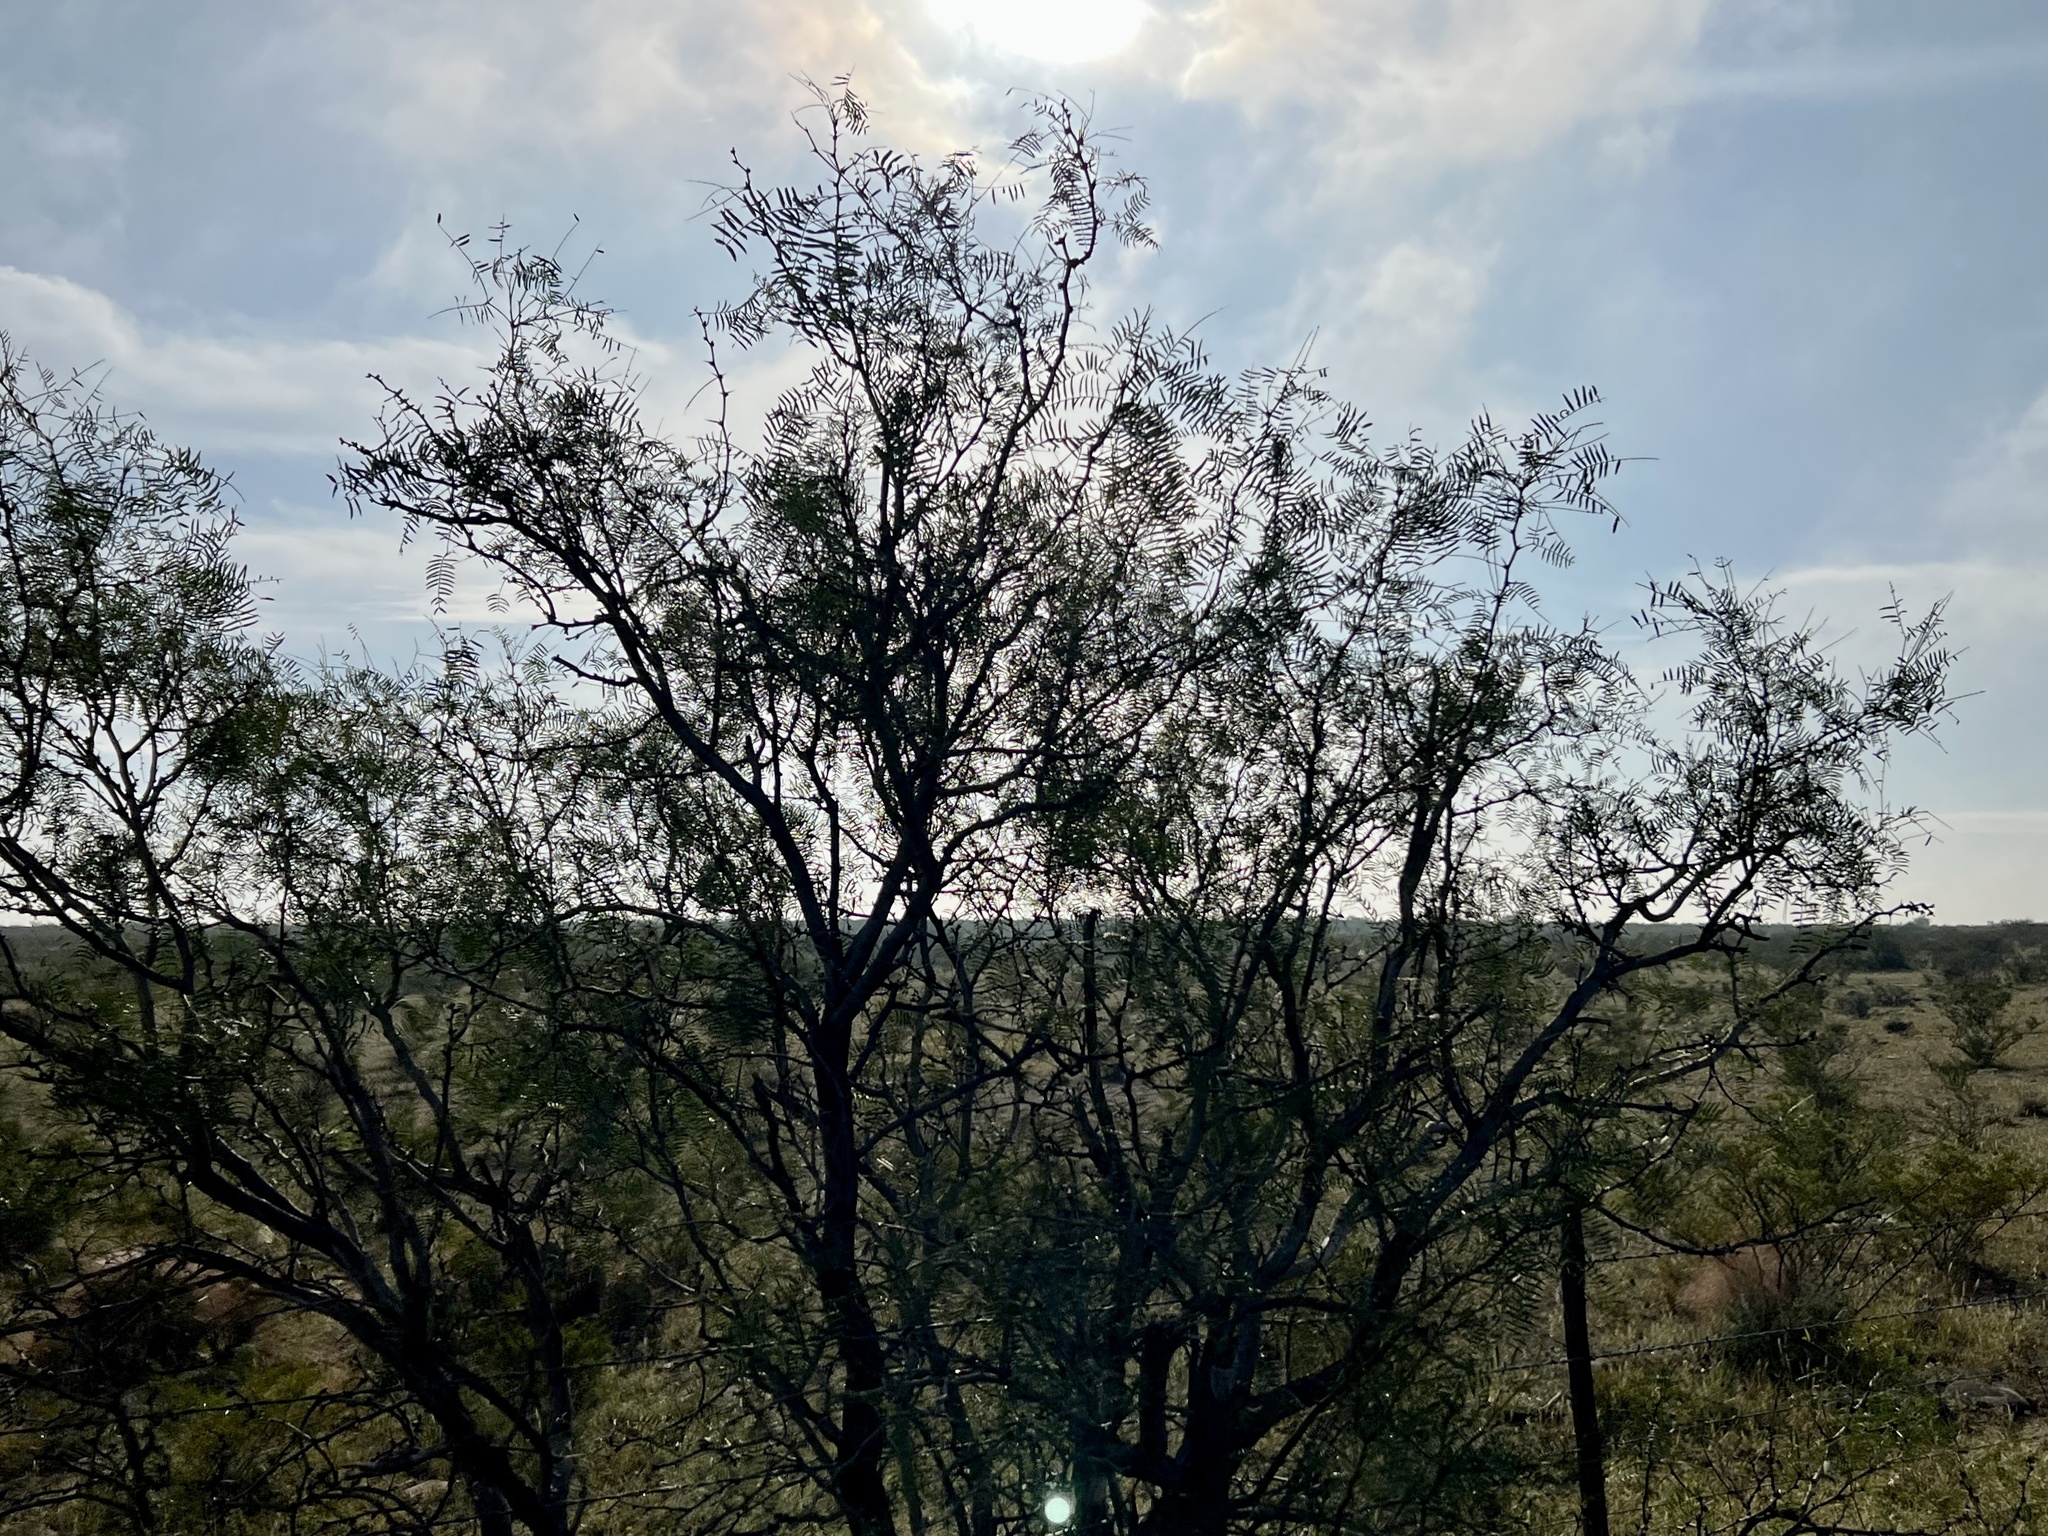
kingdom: Plantae
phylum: Tracheophyta
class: Magnoliopsida
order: Fabales
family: Fabaceae
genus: Prosopis
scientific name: Prosopis glandulosa
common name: Honey mesquite
